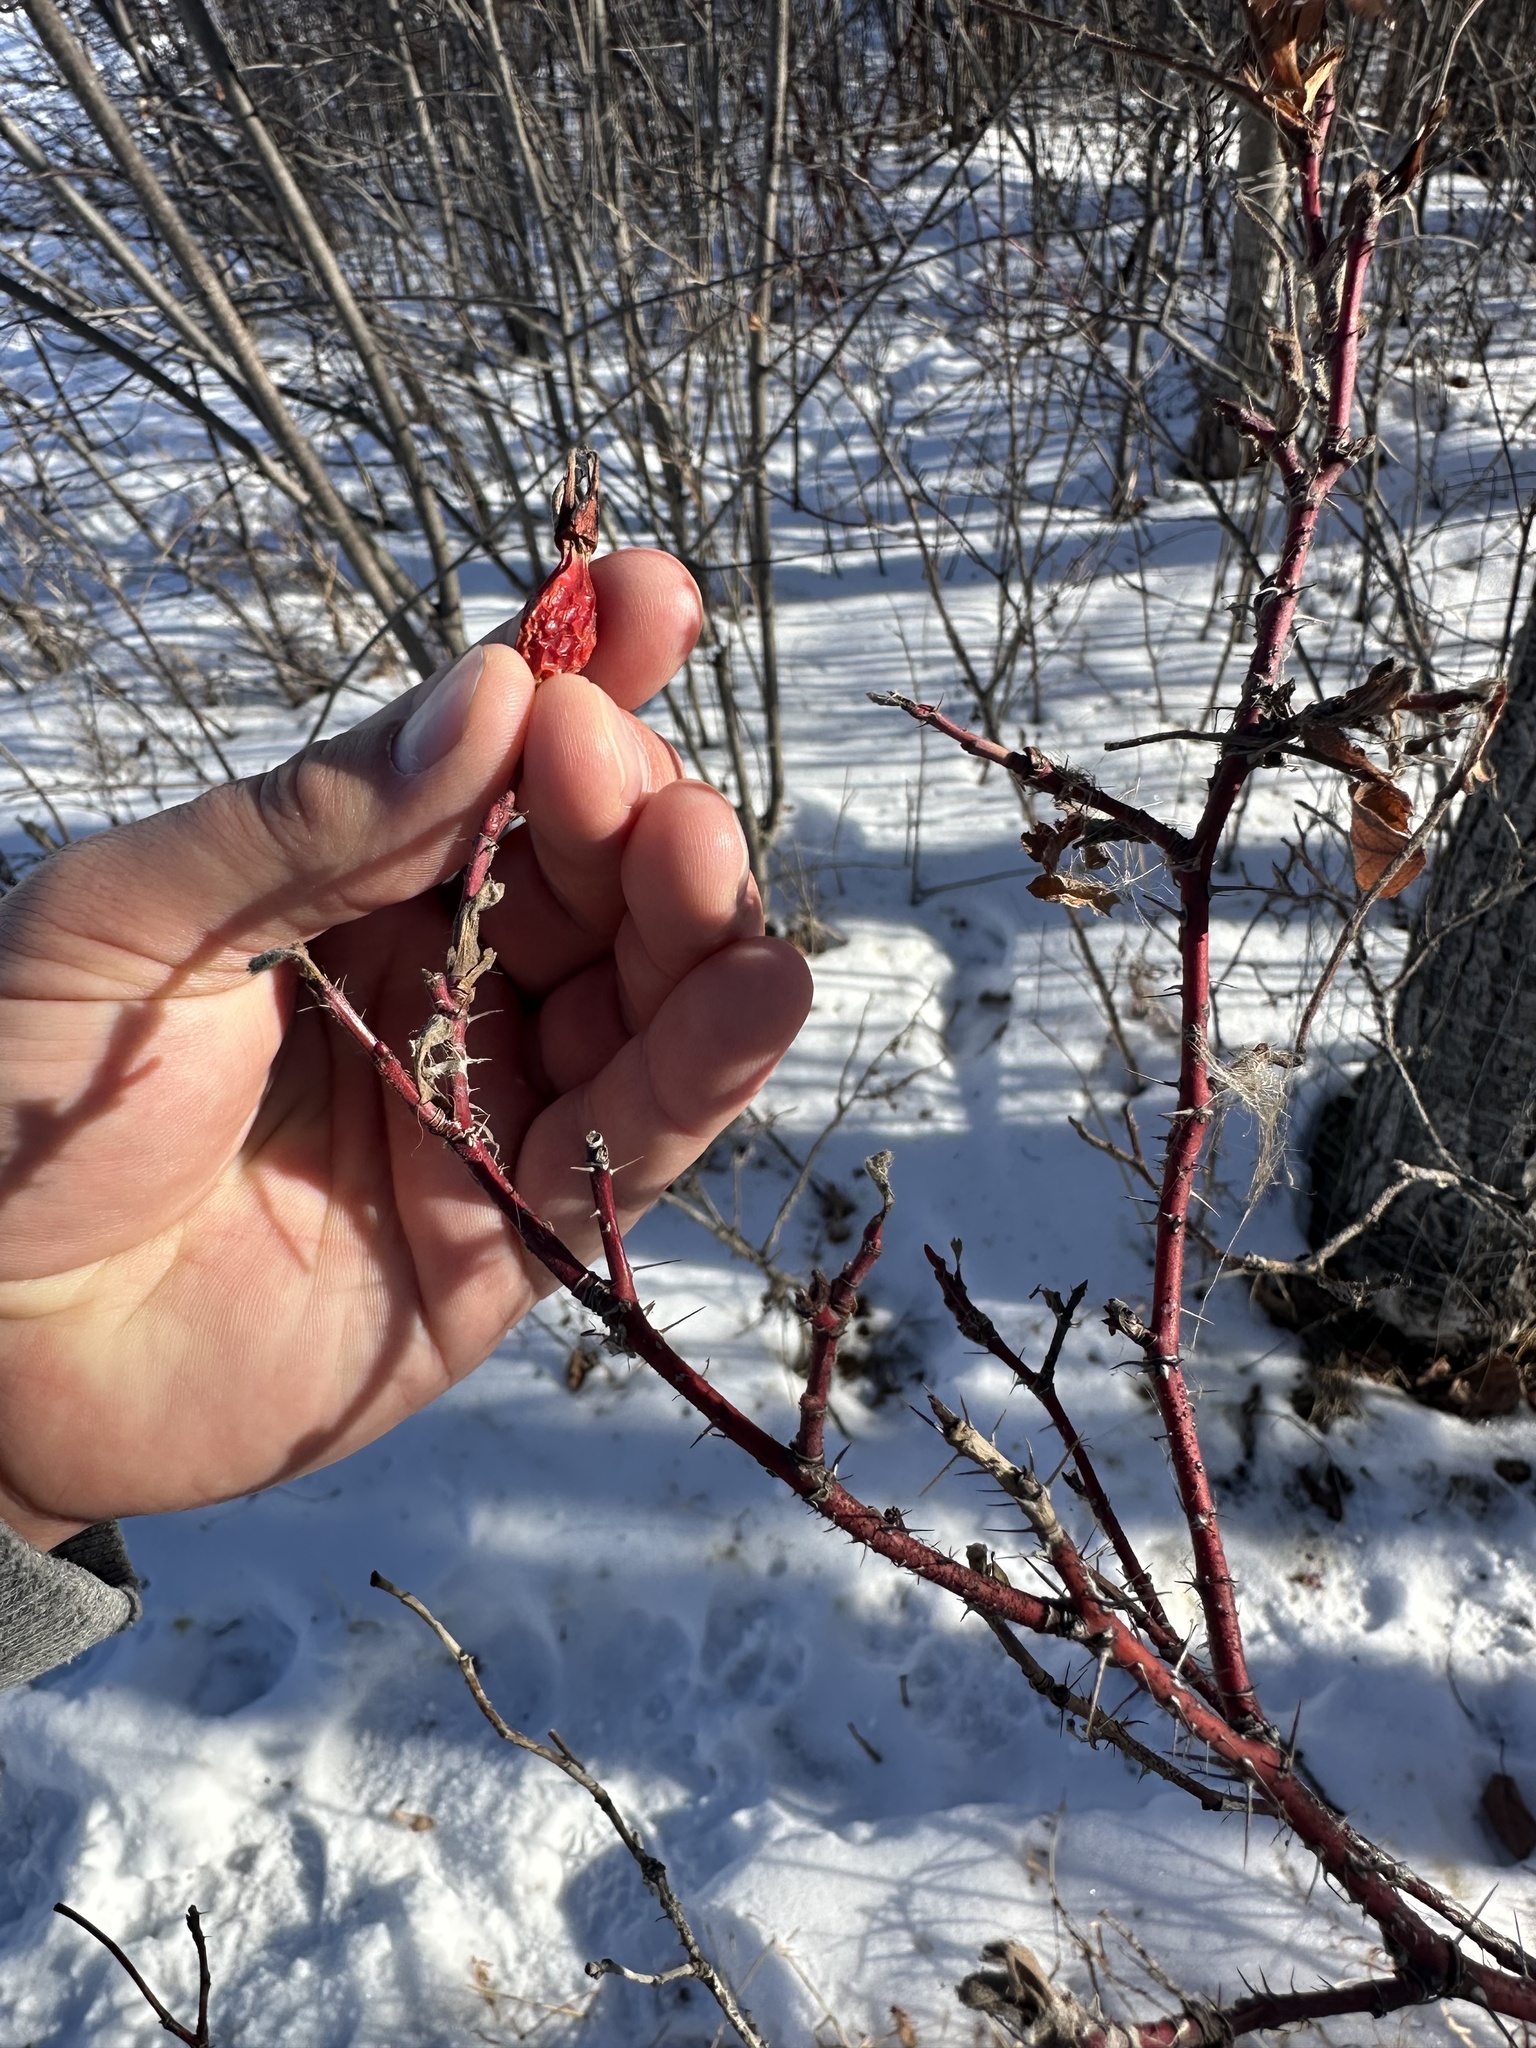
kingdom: Plantae
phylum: Tracheophyta
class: Magnoliopsida
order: Rosales
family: Rosaceae
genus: Rosa
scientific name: Rosa acicularis
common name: Prickly rose
